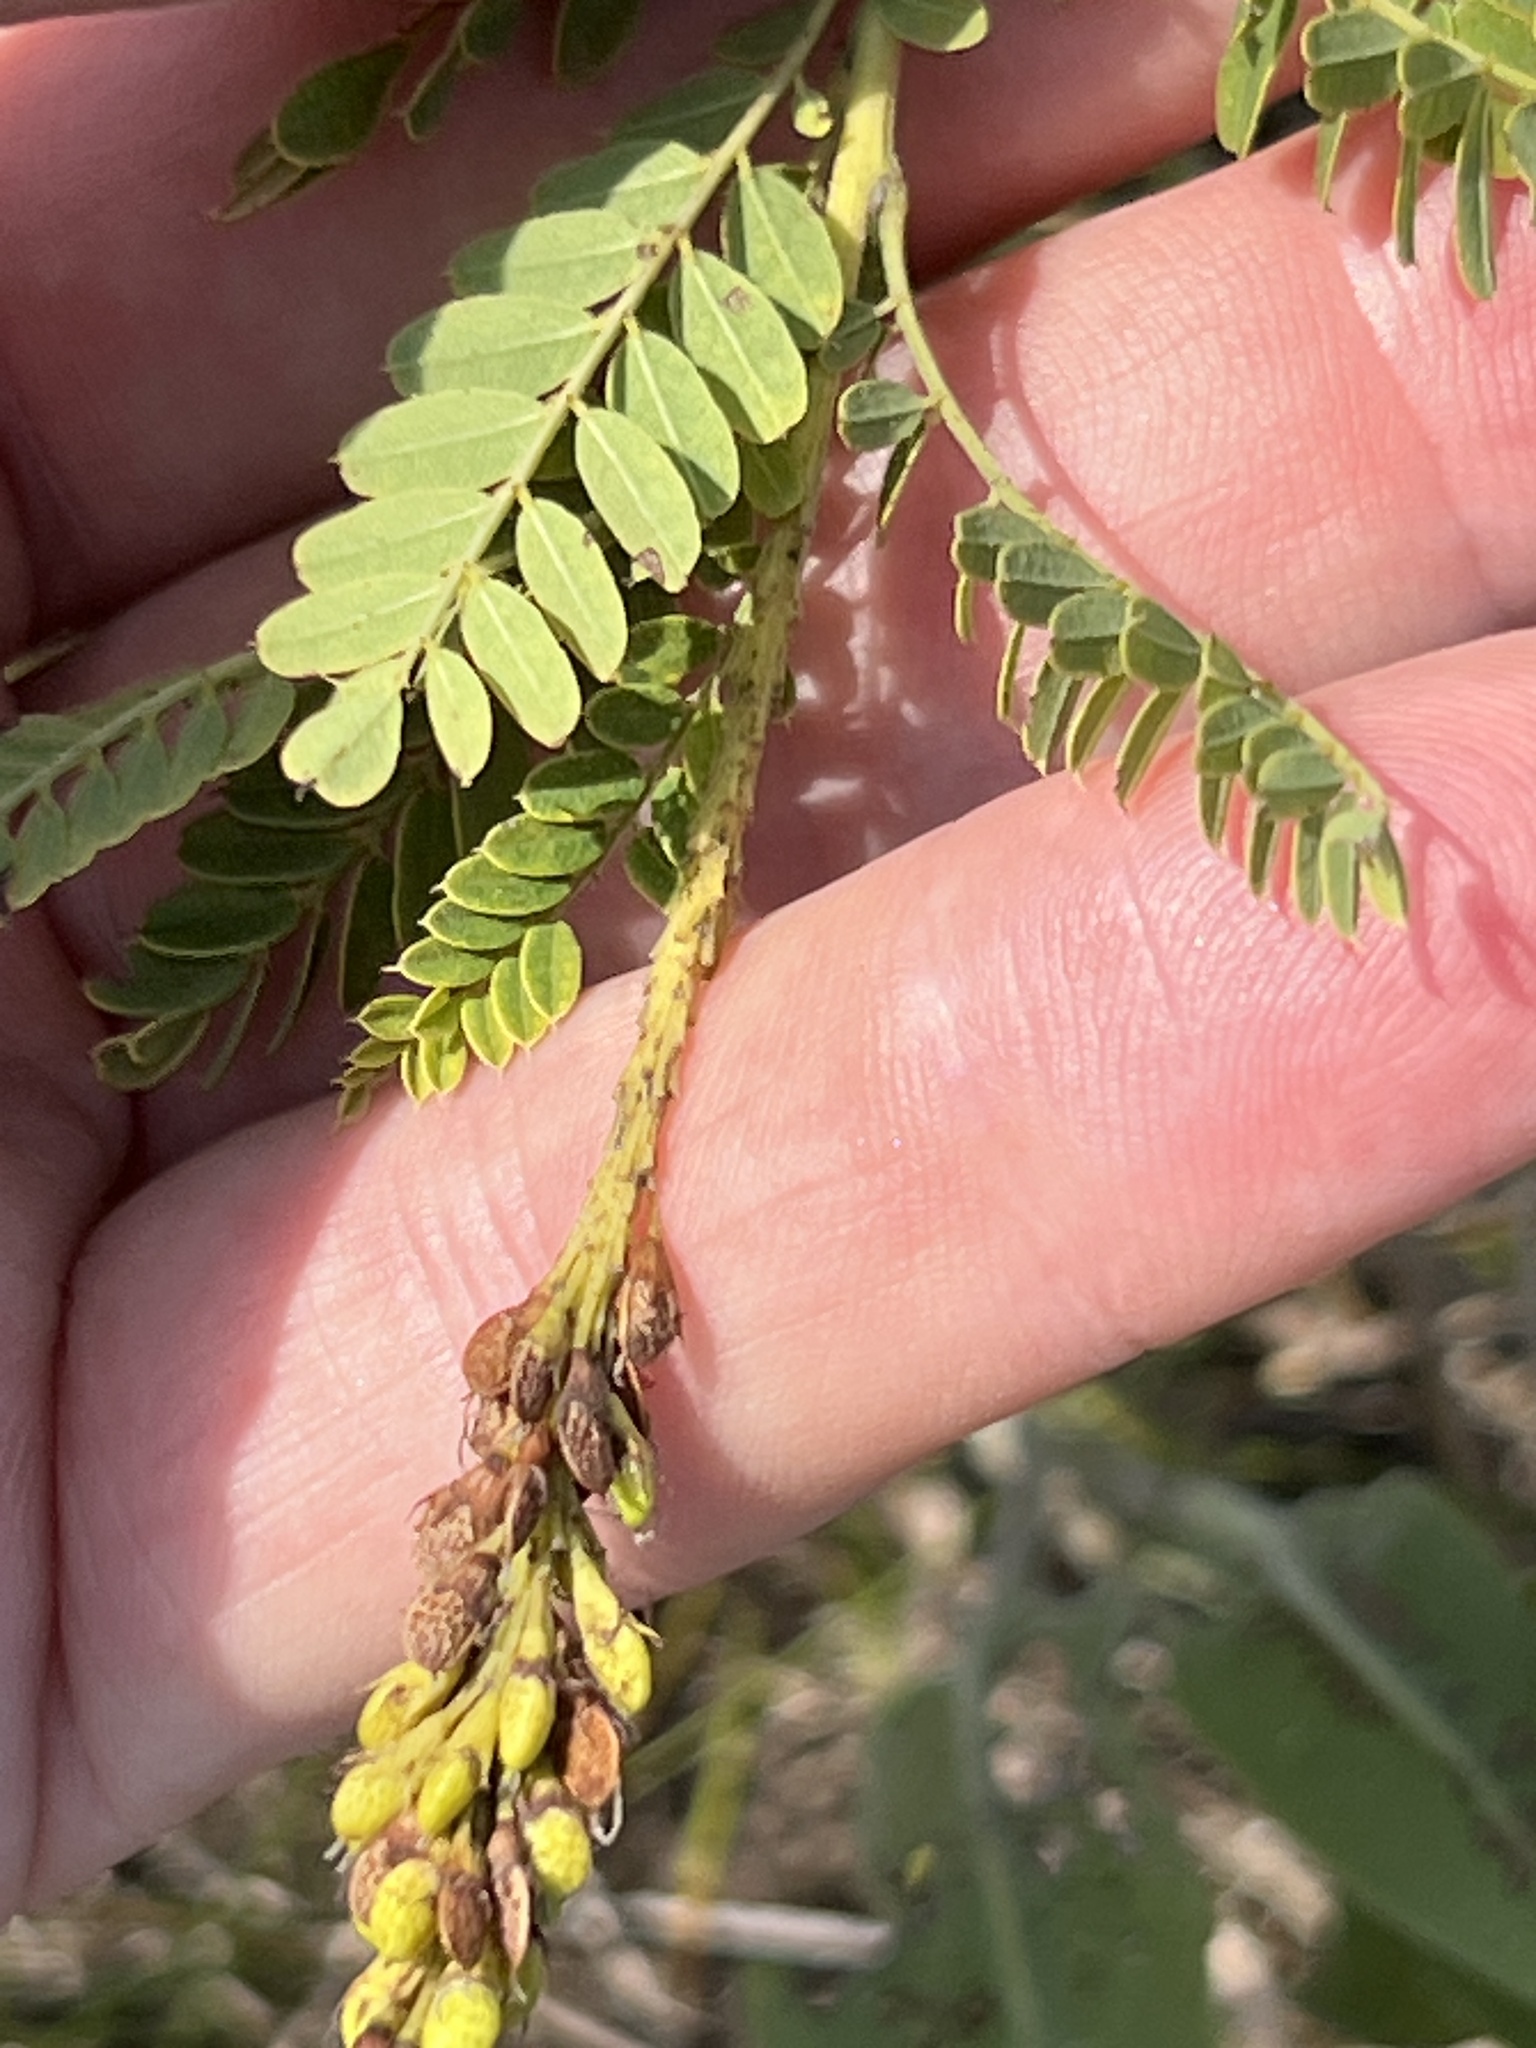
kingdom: Plantae
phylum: Tracheophyta
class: Magnoliopsida
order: Fabales
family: Fabaceae
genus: Amorpha
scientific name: Amorpha nana
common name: Fragrant false indigo
